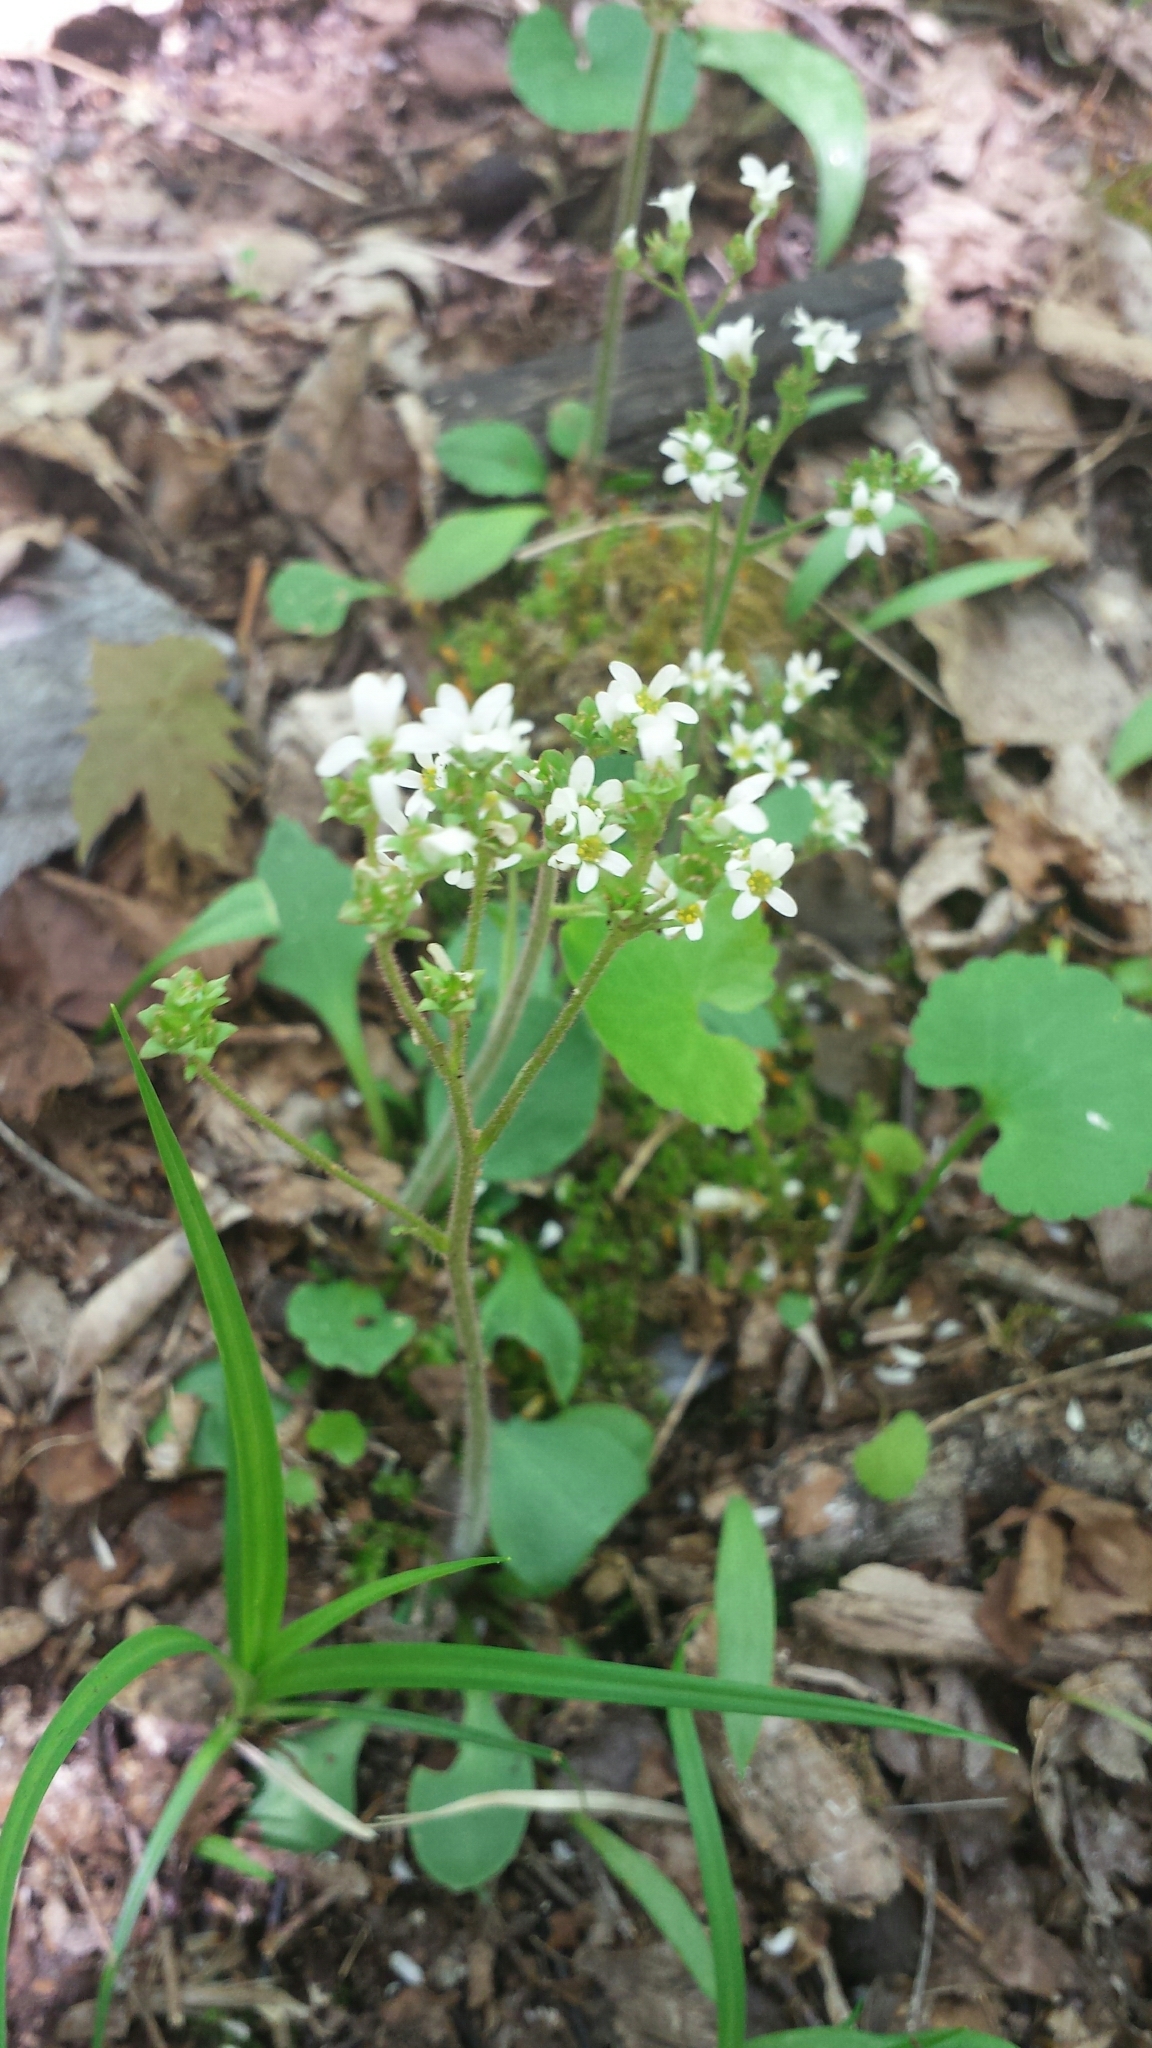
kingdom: Plantae
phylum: Tracheophyta
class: Magnoliopsida
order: Saxifragales
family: Saxifragaceae
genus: Micranthes
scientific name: Micranthes virginiensis
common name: Early saxifrage
